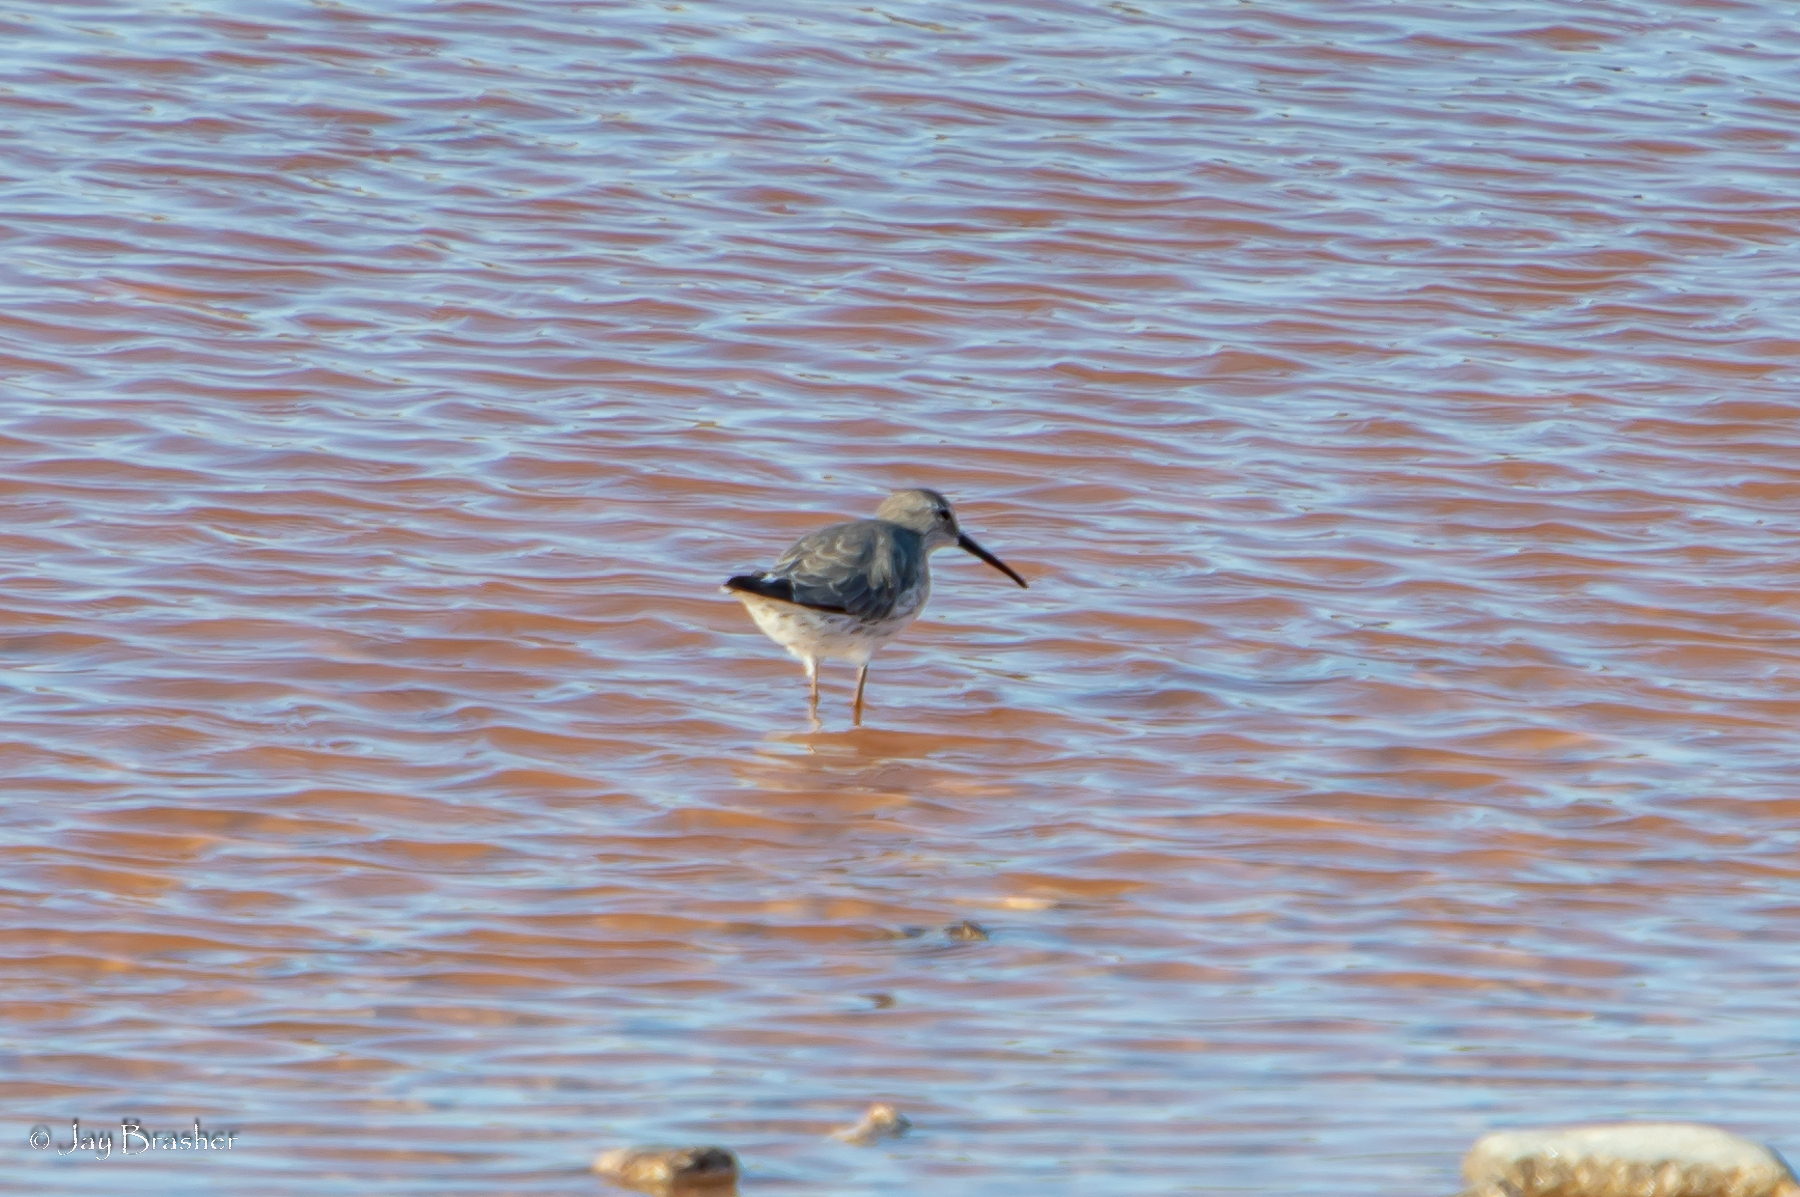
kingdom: Animalia
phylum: Chordata
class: Aves
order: Charadriiformes
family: Scolopacidae
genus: Calidris
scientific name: Calidris himantopus
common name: Stilt sandpiper
